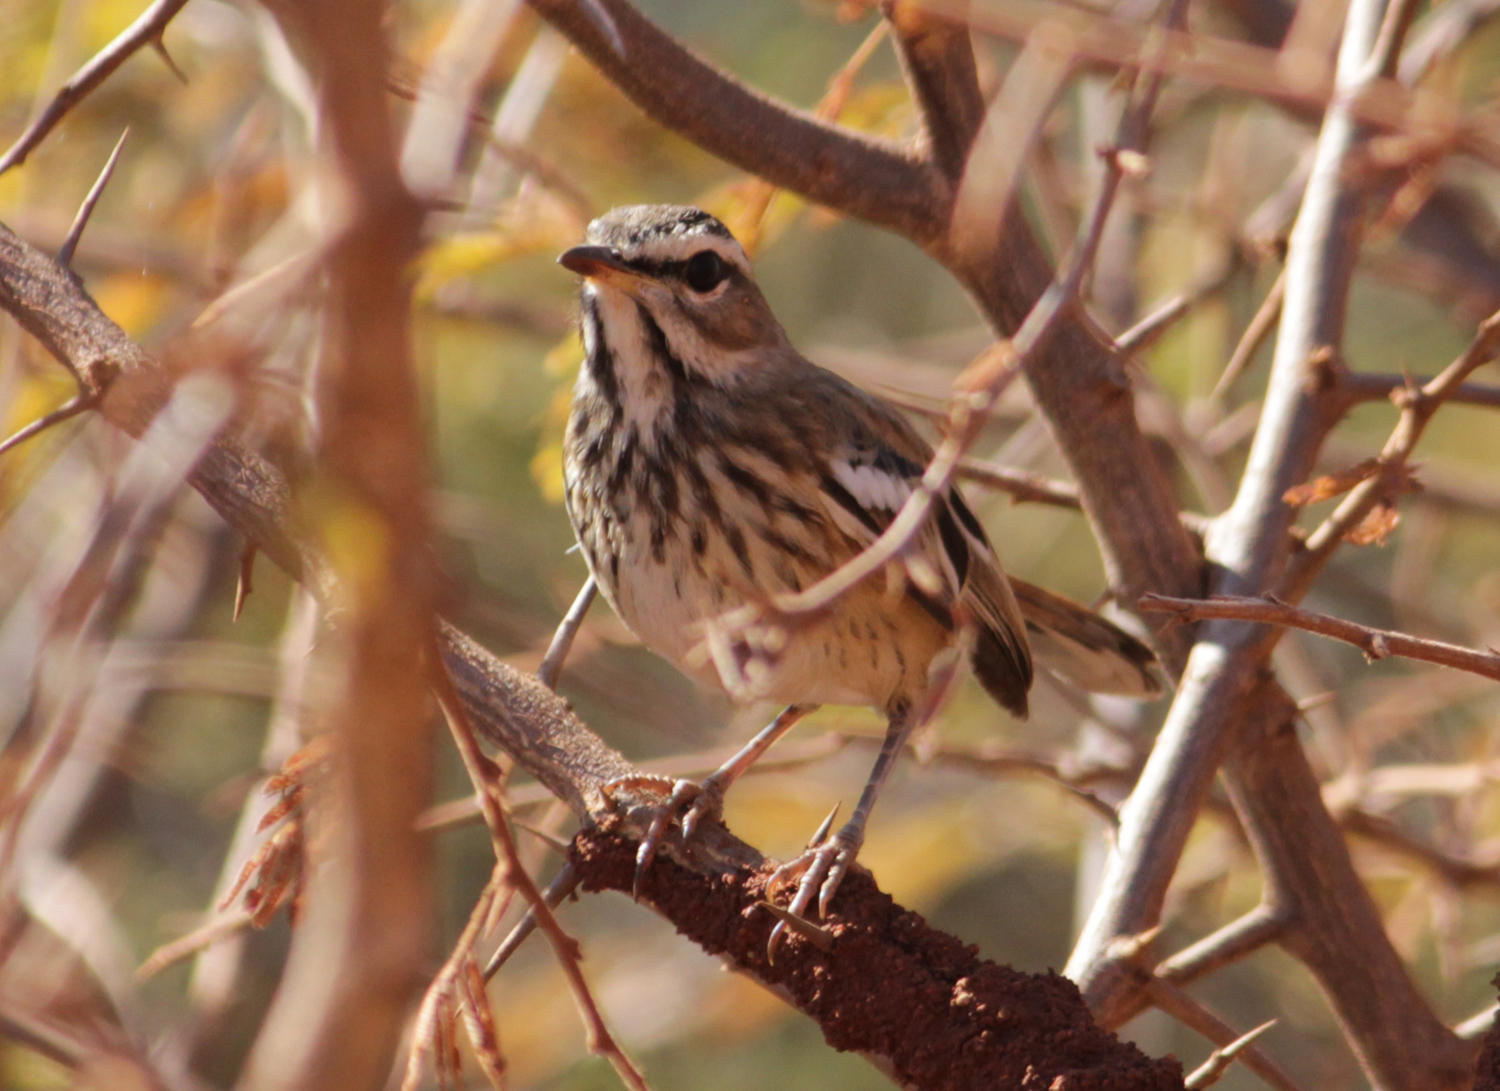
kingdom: Animalia
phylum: Chordata
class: Aves
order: Passeriformes
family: Muscicapidae
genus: Erythropygia
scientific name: Erythropygia leucophrys
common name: White-browed scrub robin
